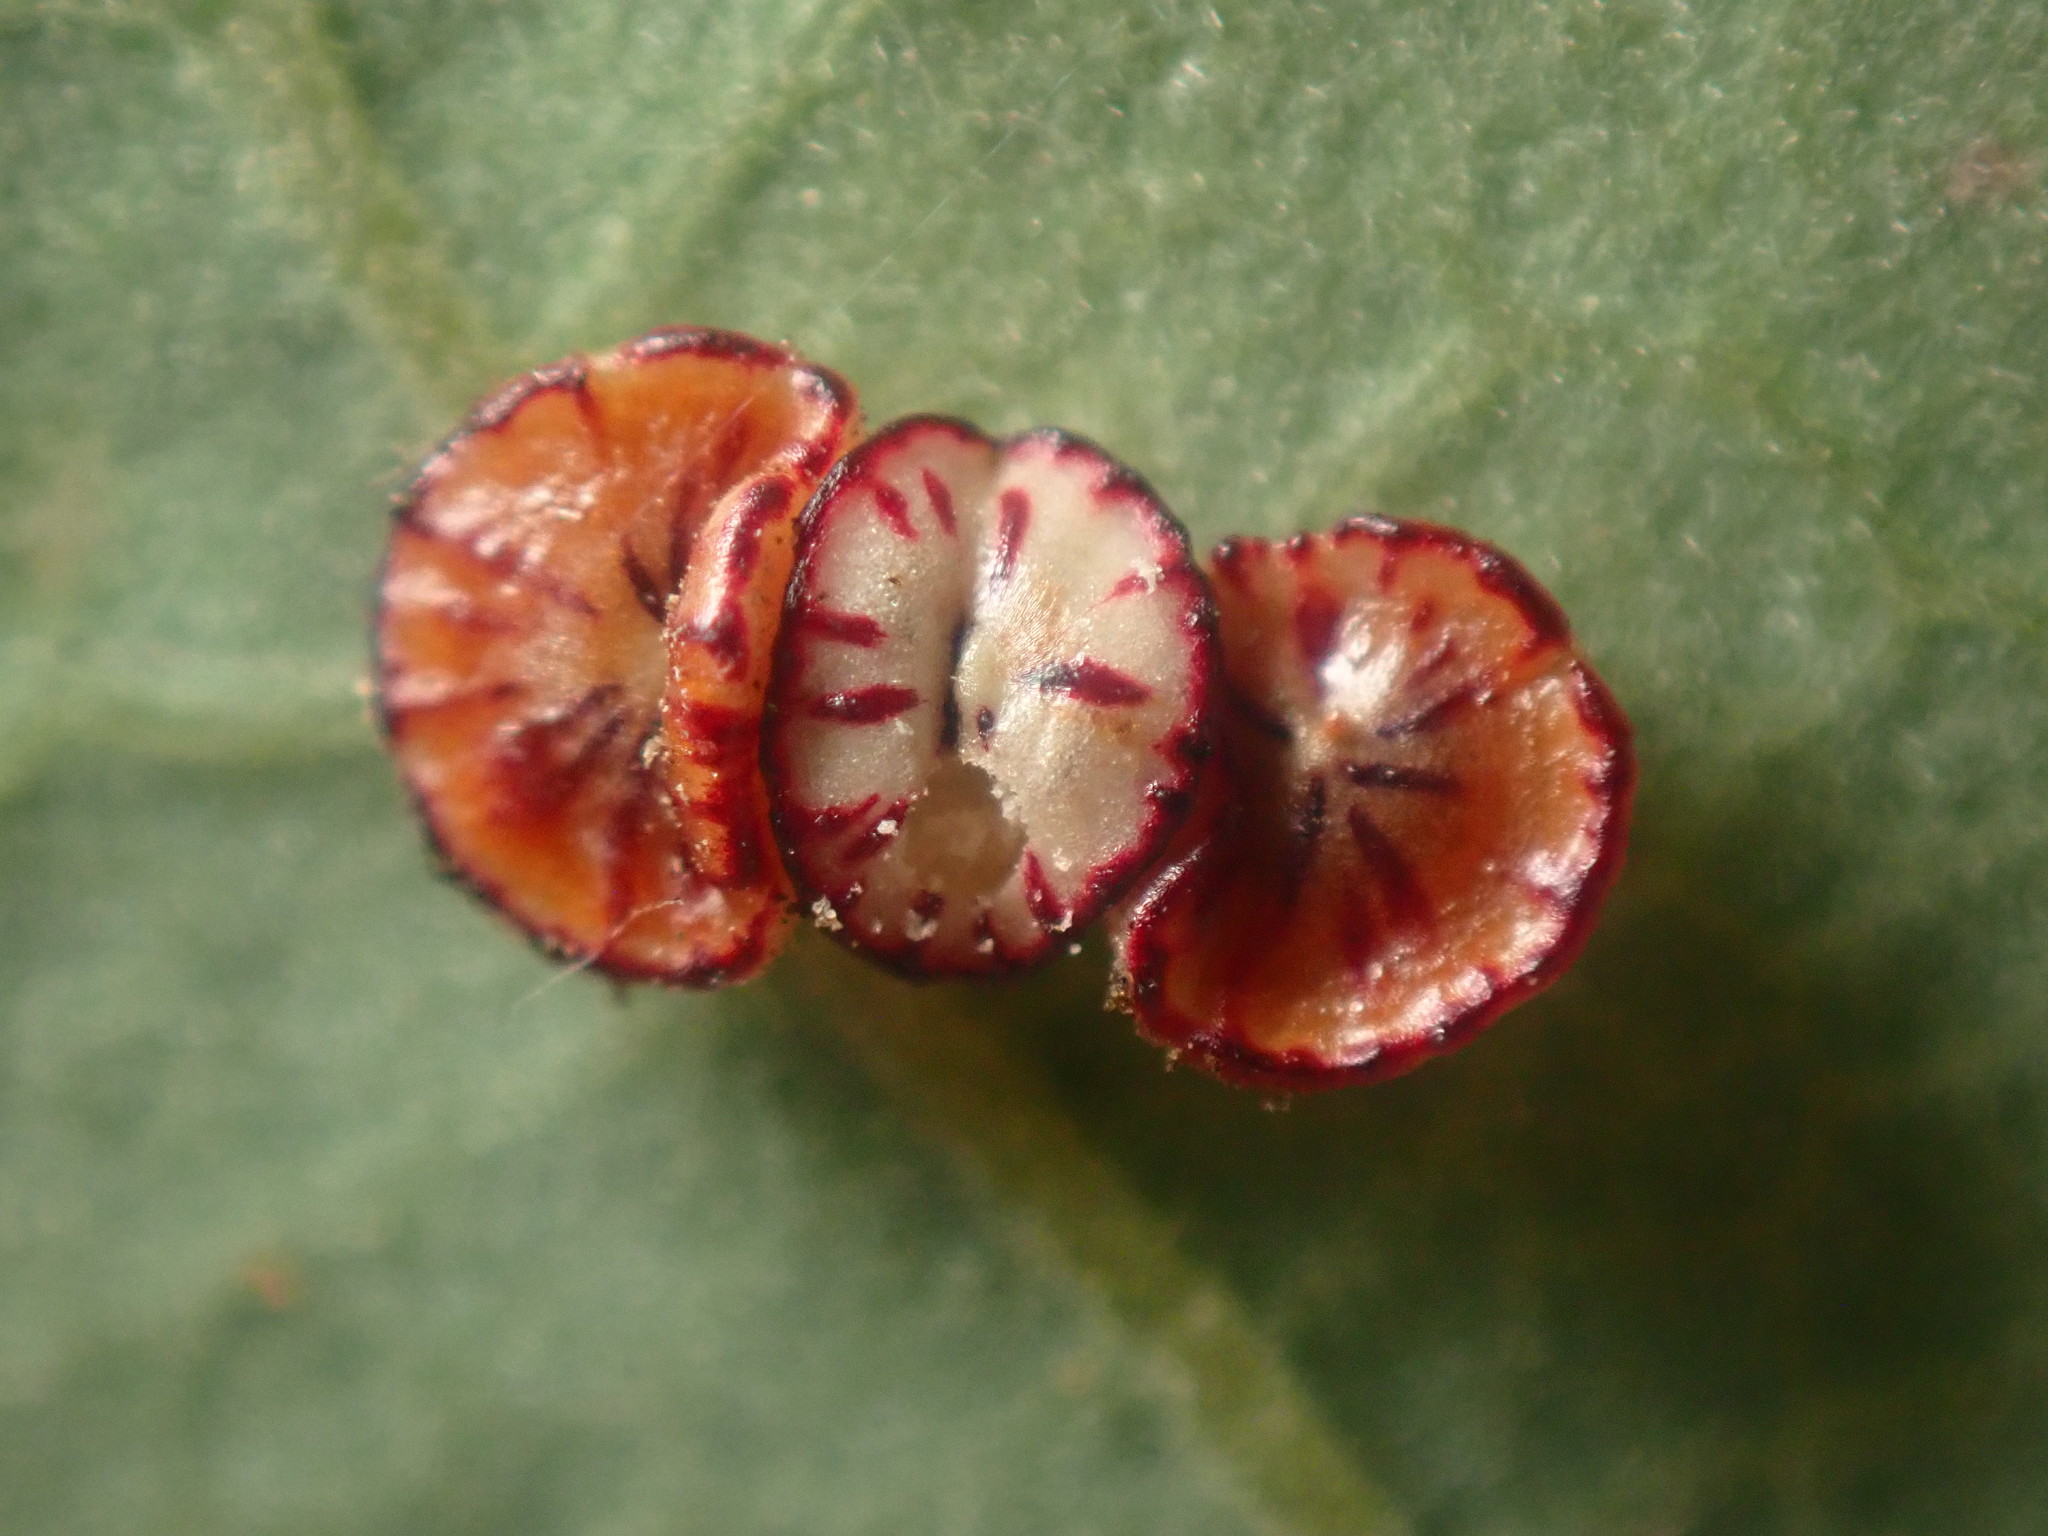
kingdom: Animalia
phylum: Arthropoda
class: Insecta
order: Hymenoptera
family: Cynipidae
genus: Andricus
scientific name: Andricus
